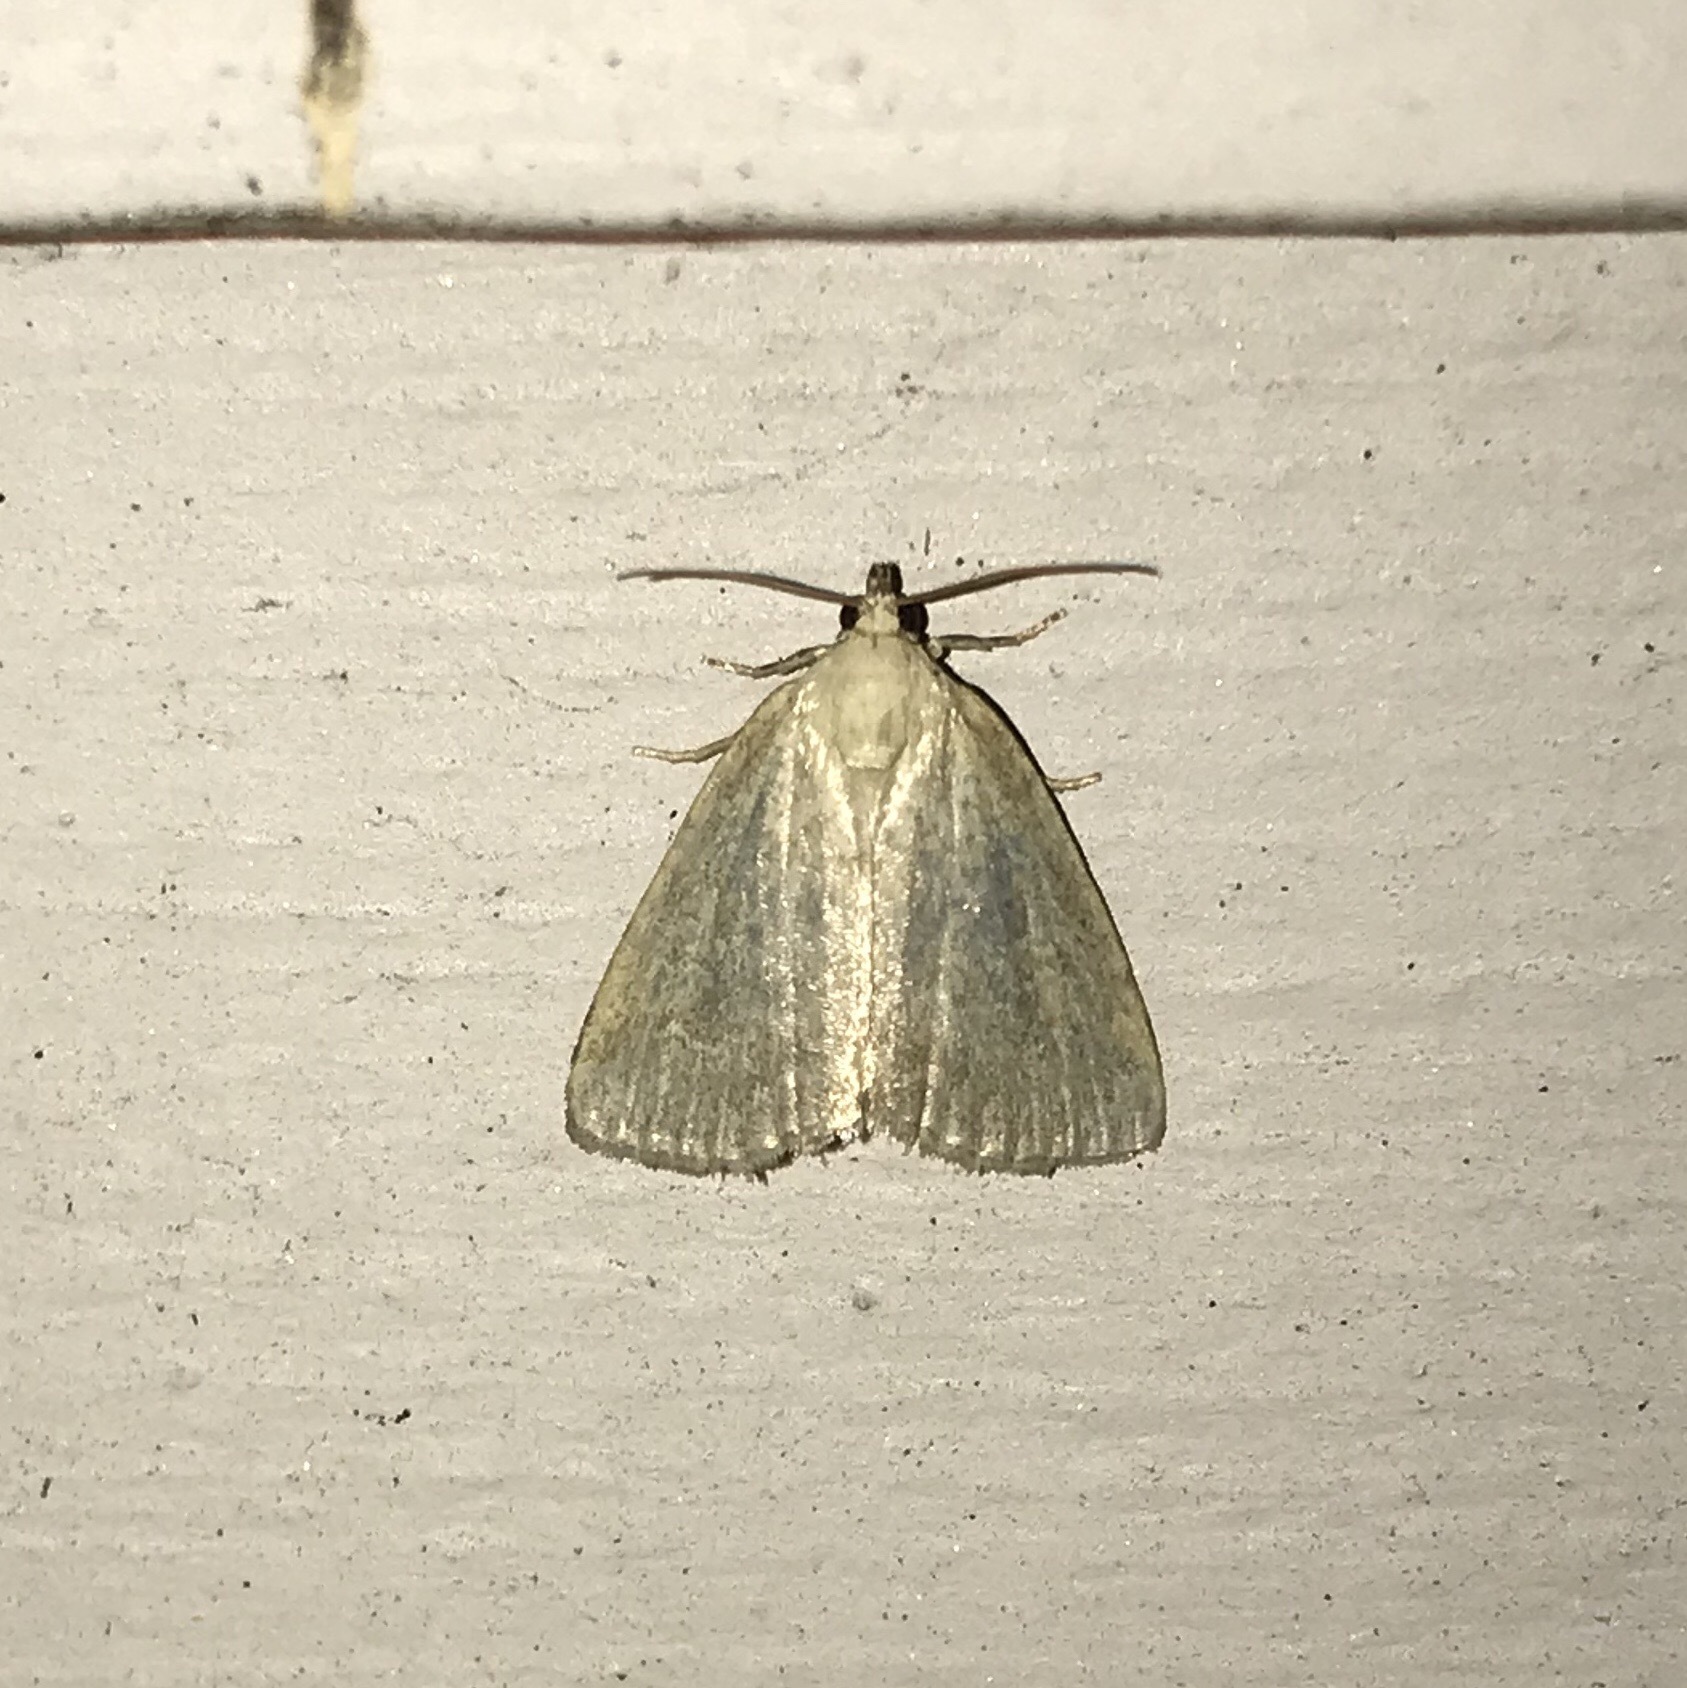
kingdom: Animalia
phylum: Arthropoda
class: Insecta
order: Lepidoptera
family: Noctuidae
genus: Protodeltote
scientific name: Protodeltote albidula
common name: Pale glyph
